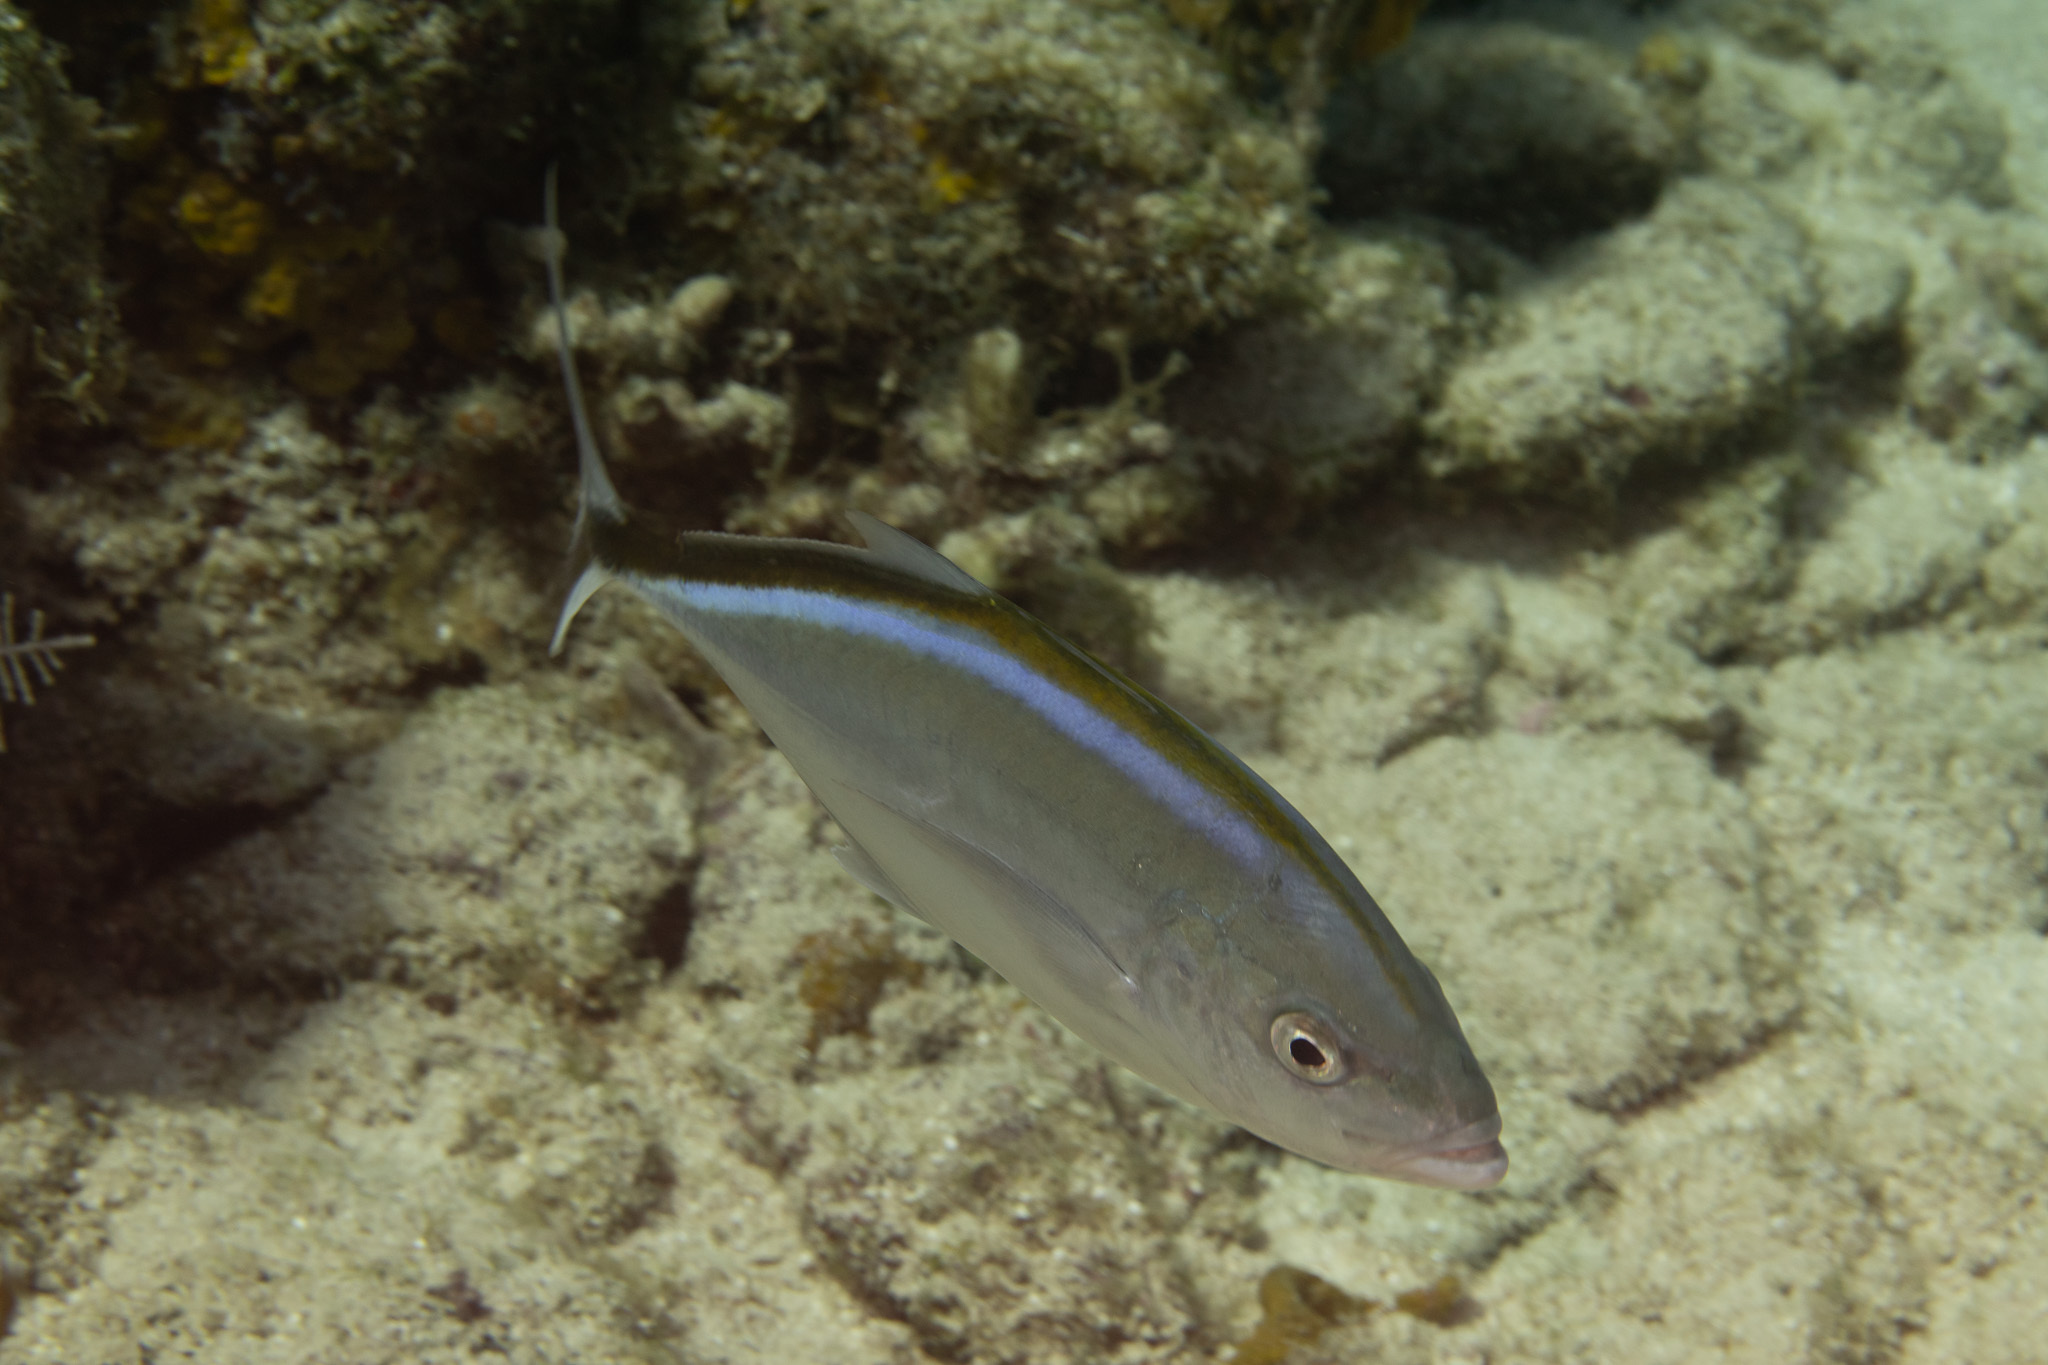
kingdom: Animalia
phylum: Chordata
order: Perciformes
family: Carangidae
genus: Caranx
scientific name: Caranx ruber
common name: Bar jack
